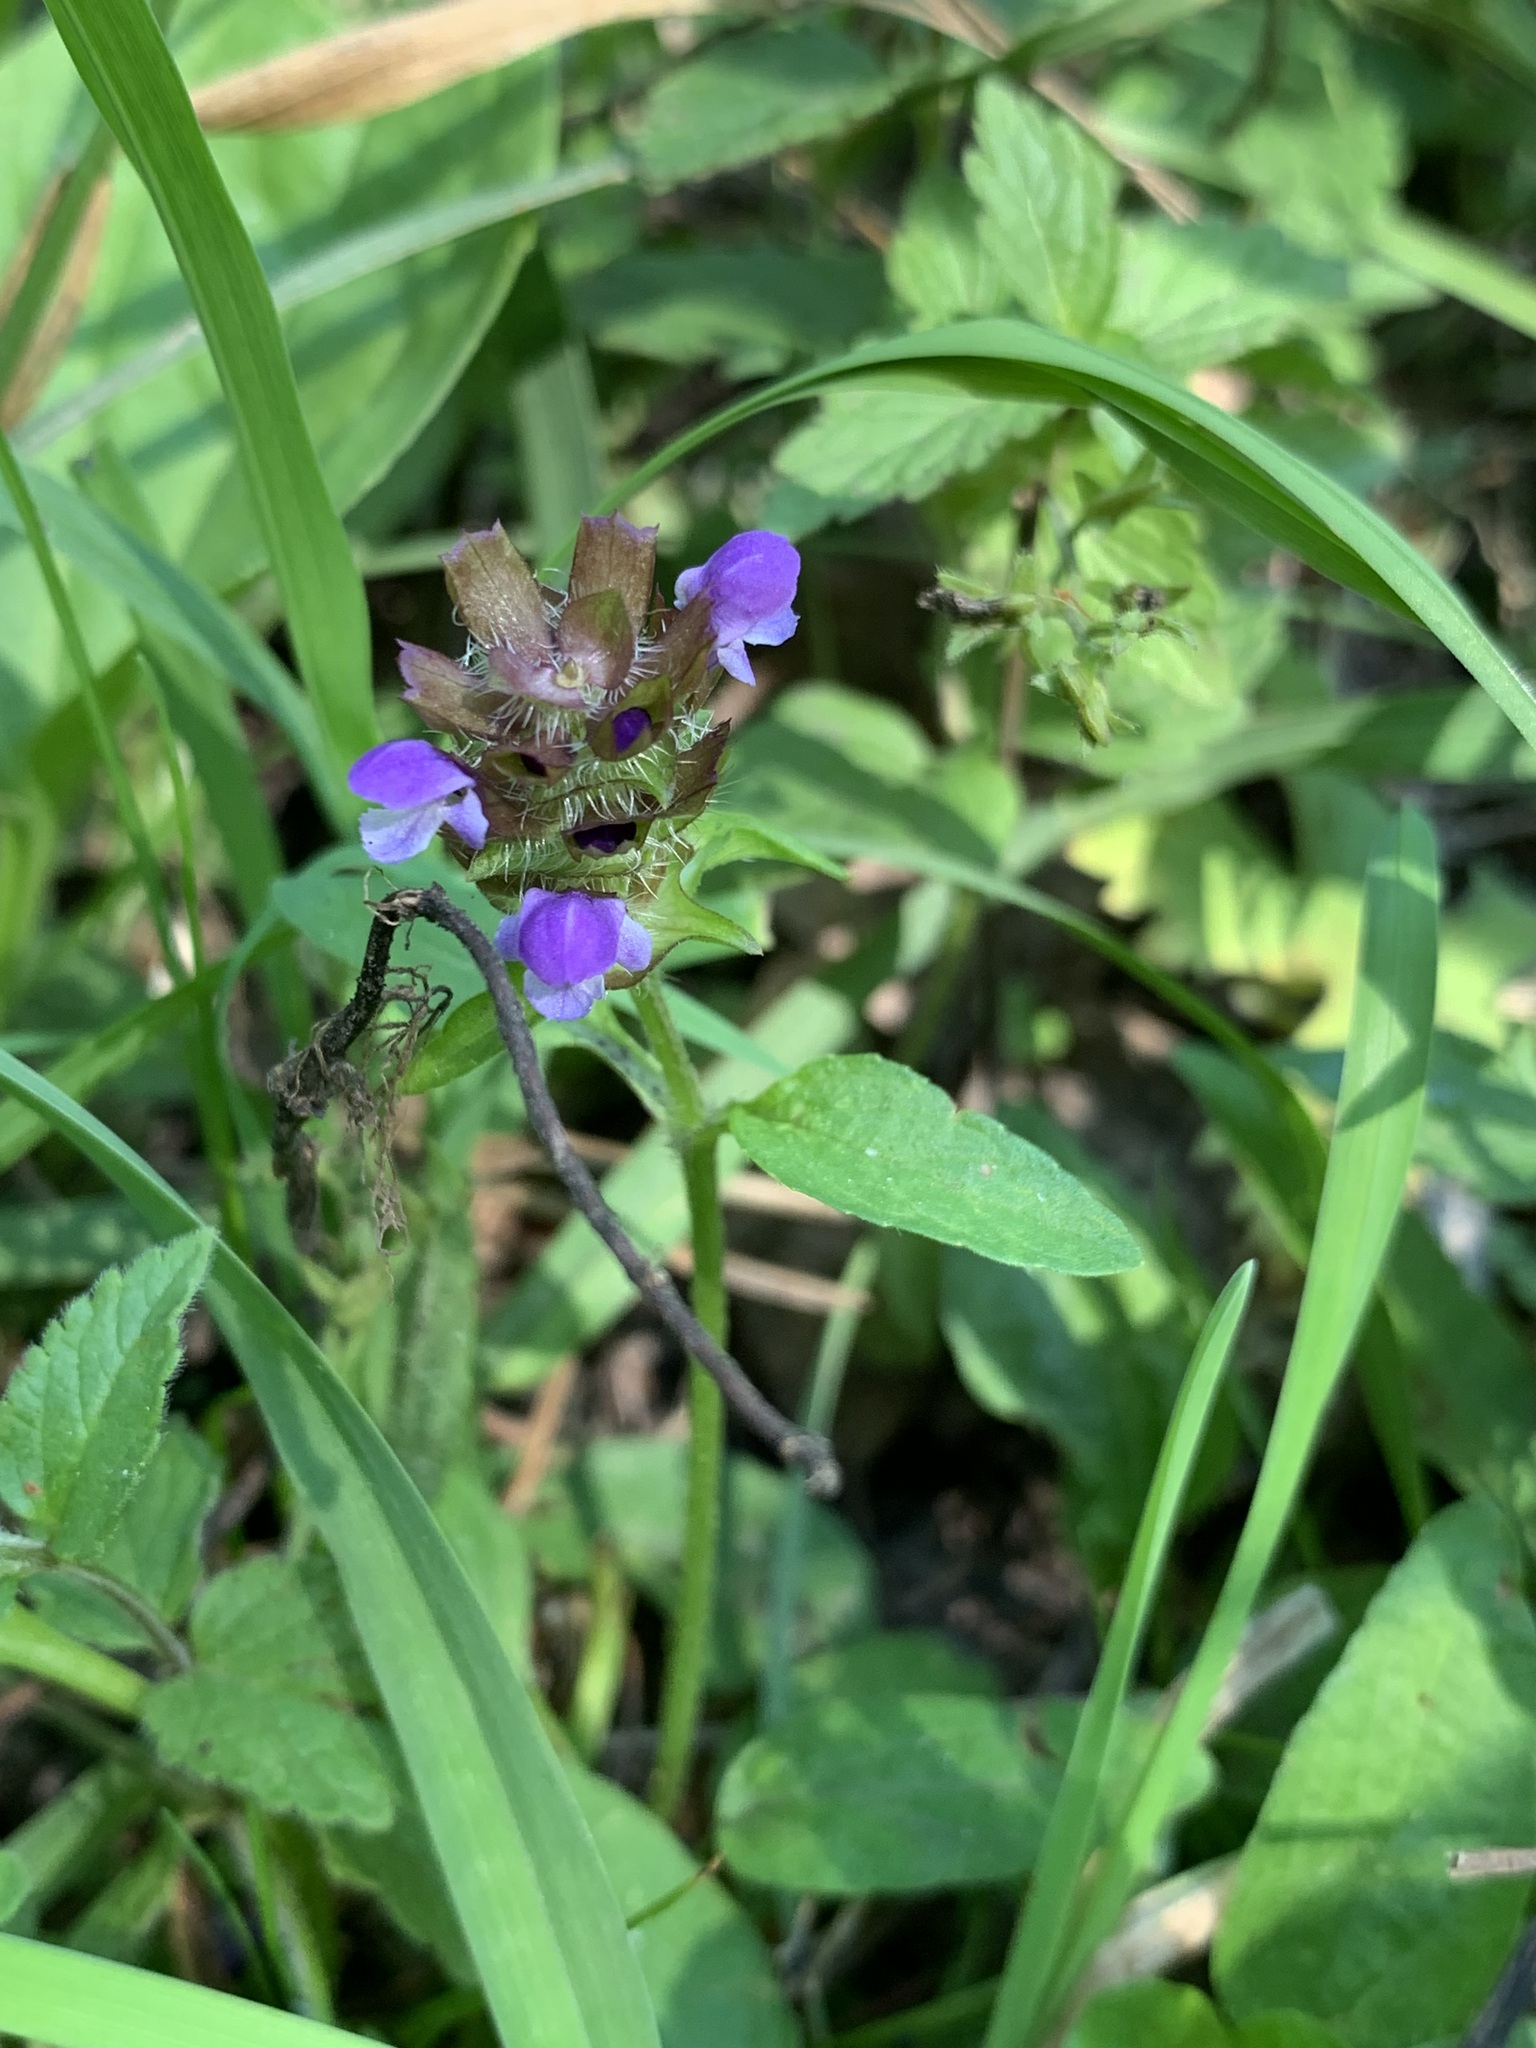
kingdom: Plantae
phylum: Tracheophyta
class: Magnoliopsida
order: Lamiales
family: Lamiaceae
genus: Prunella
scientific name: Prunella vulgaris
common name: Heal-all
